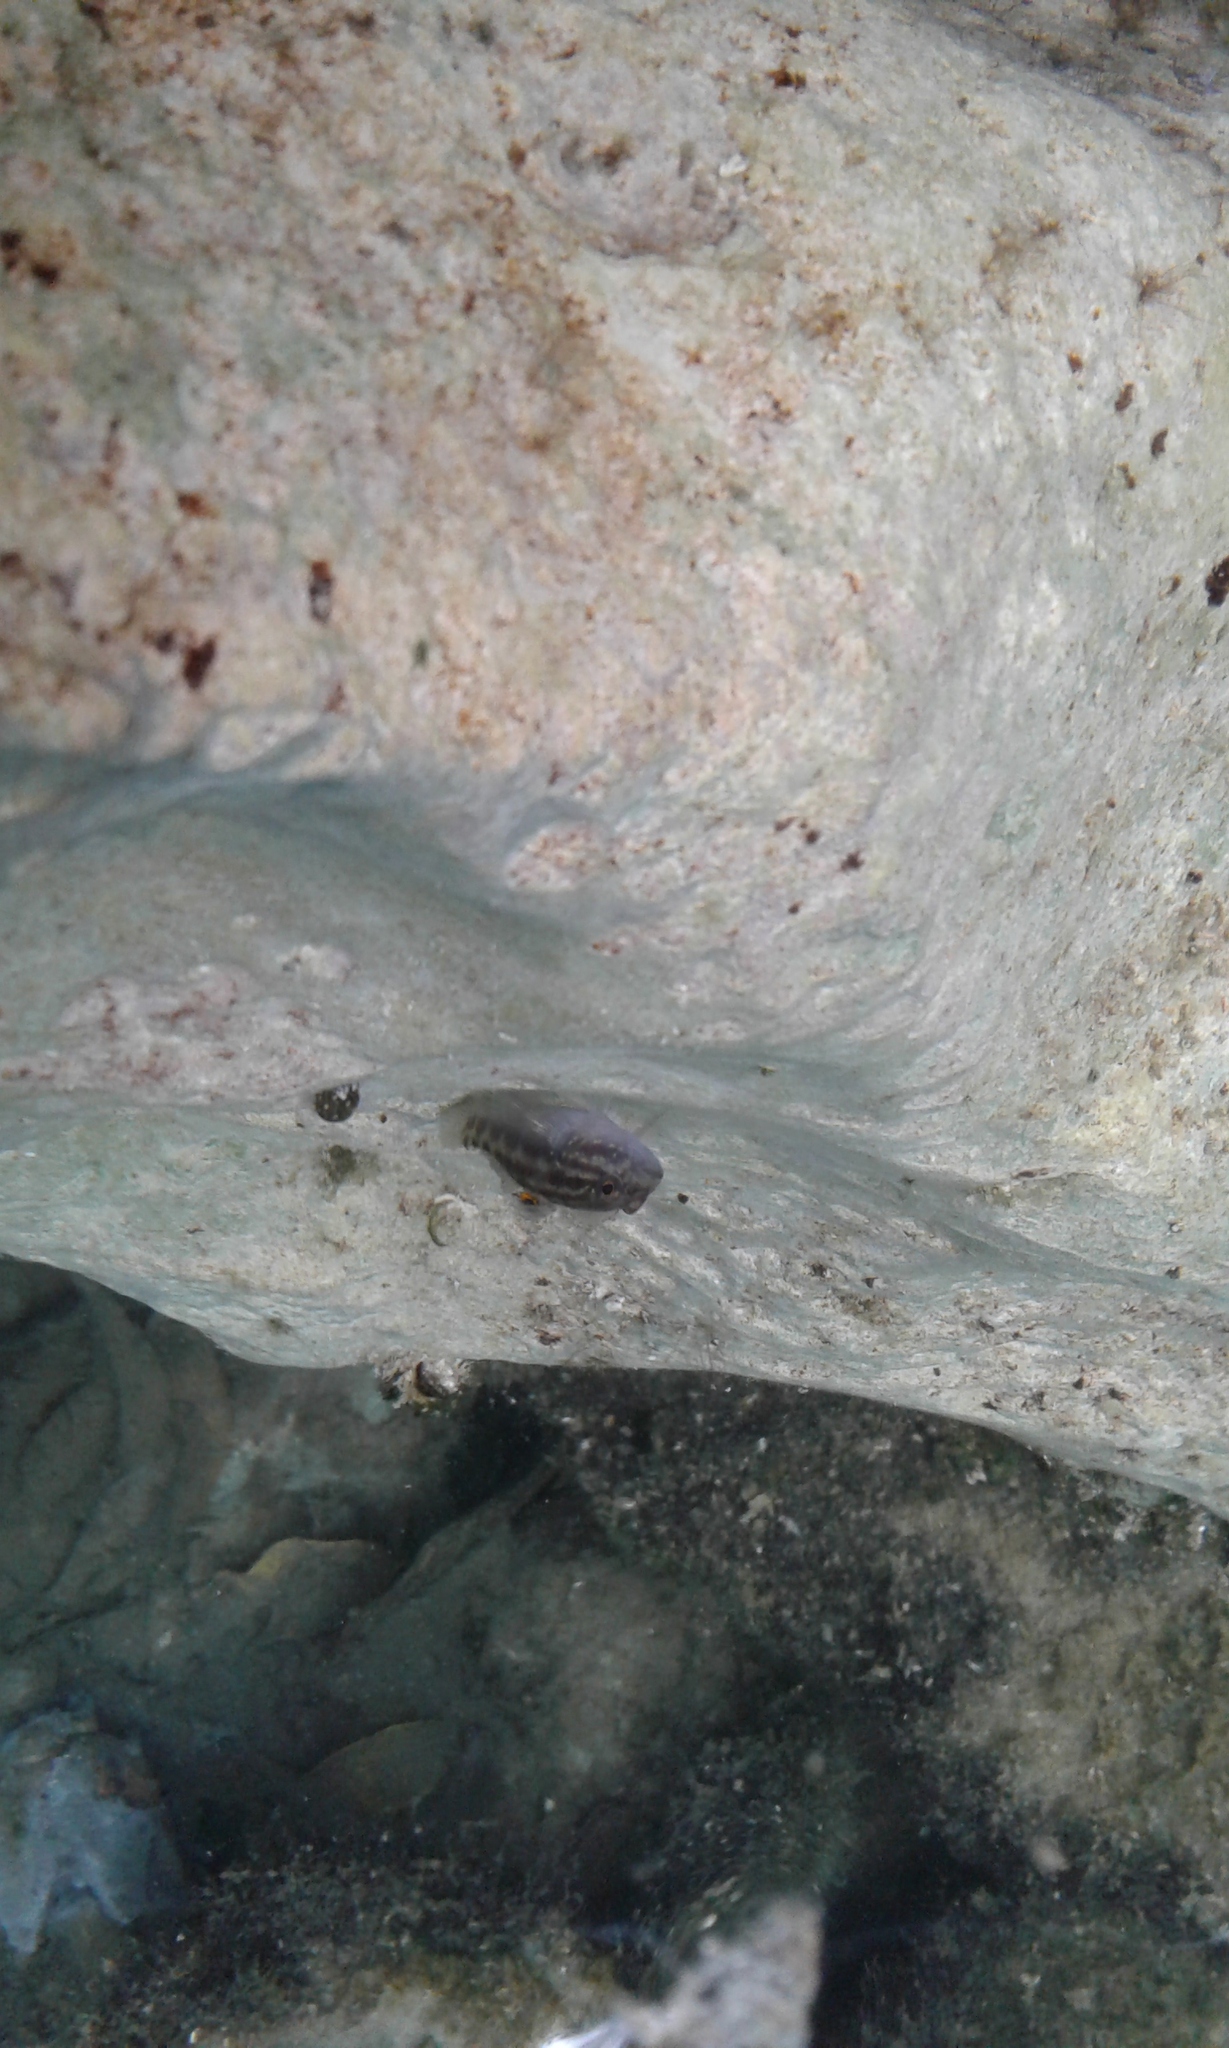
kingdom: Animalia
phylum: Chordata
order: Perciformes
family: Gobiidae
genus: Lophogobius
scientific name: Lophogobius cyprinoides
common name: Crested goby
